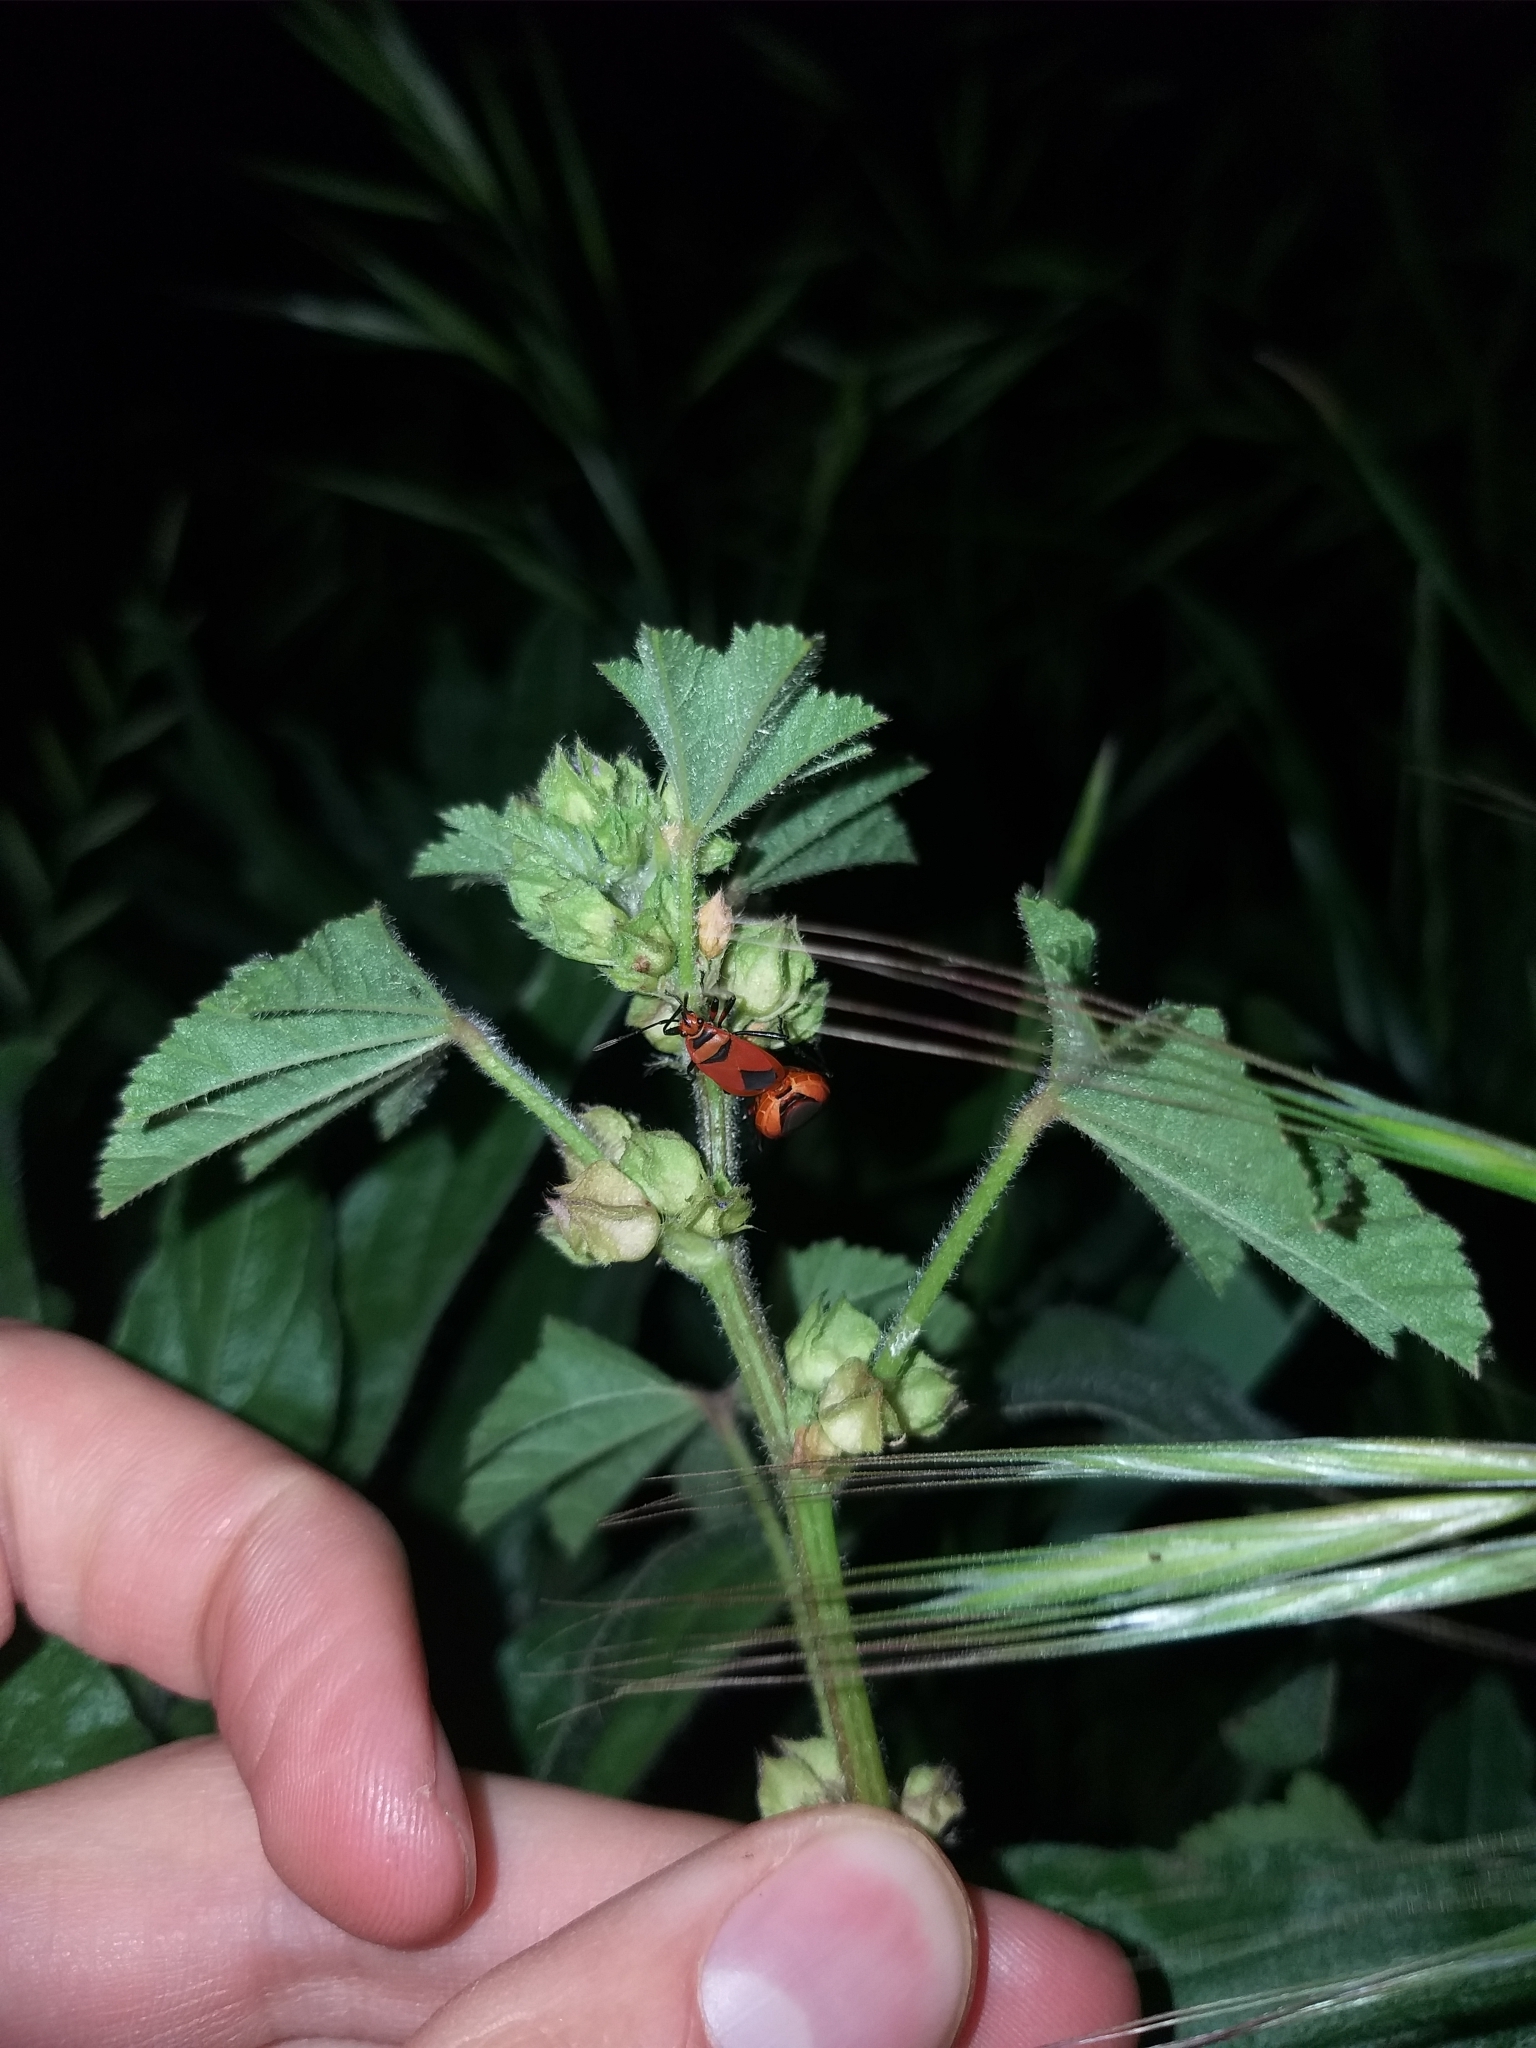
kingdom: Animalia
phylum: Arthropoda
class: Insecta
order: Hemiptera
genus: Cenaeus
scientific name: Cenaeus
